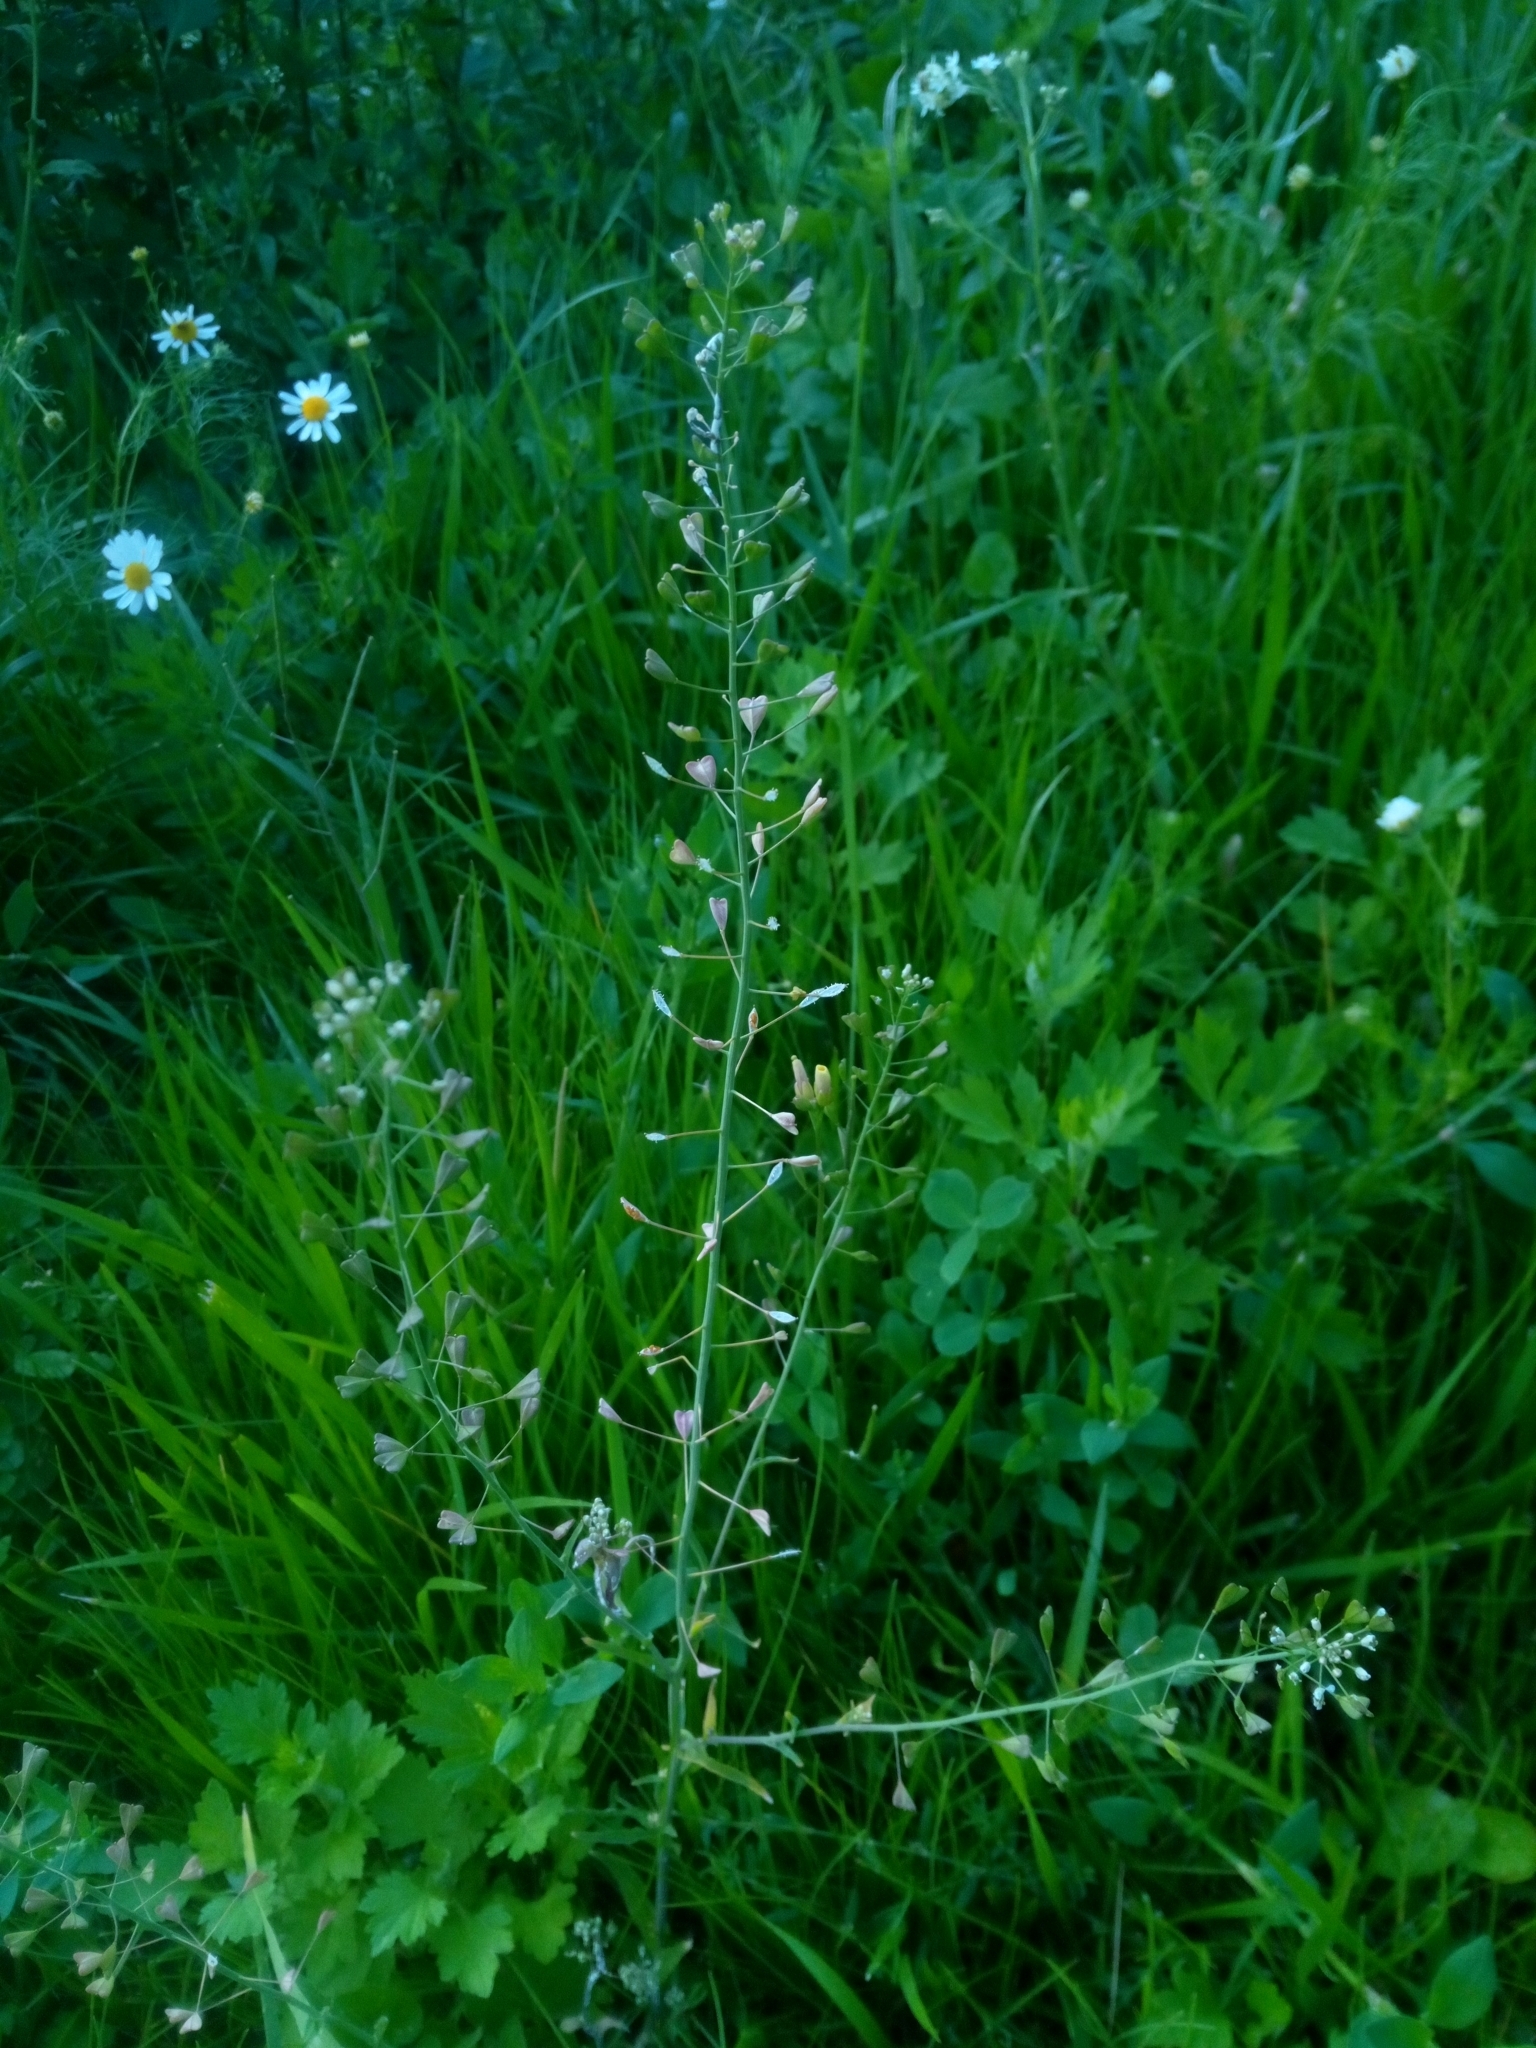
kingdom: Plantae
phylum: Tracheophyta
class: Magnoliopsida
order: Brassicales
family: Brassicaceae
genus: Capsella
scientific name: Capsella bursa-pastoris
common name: Shepherd's purse
